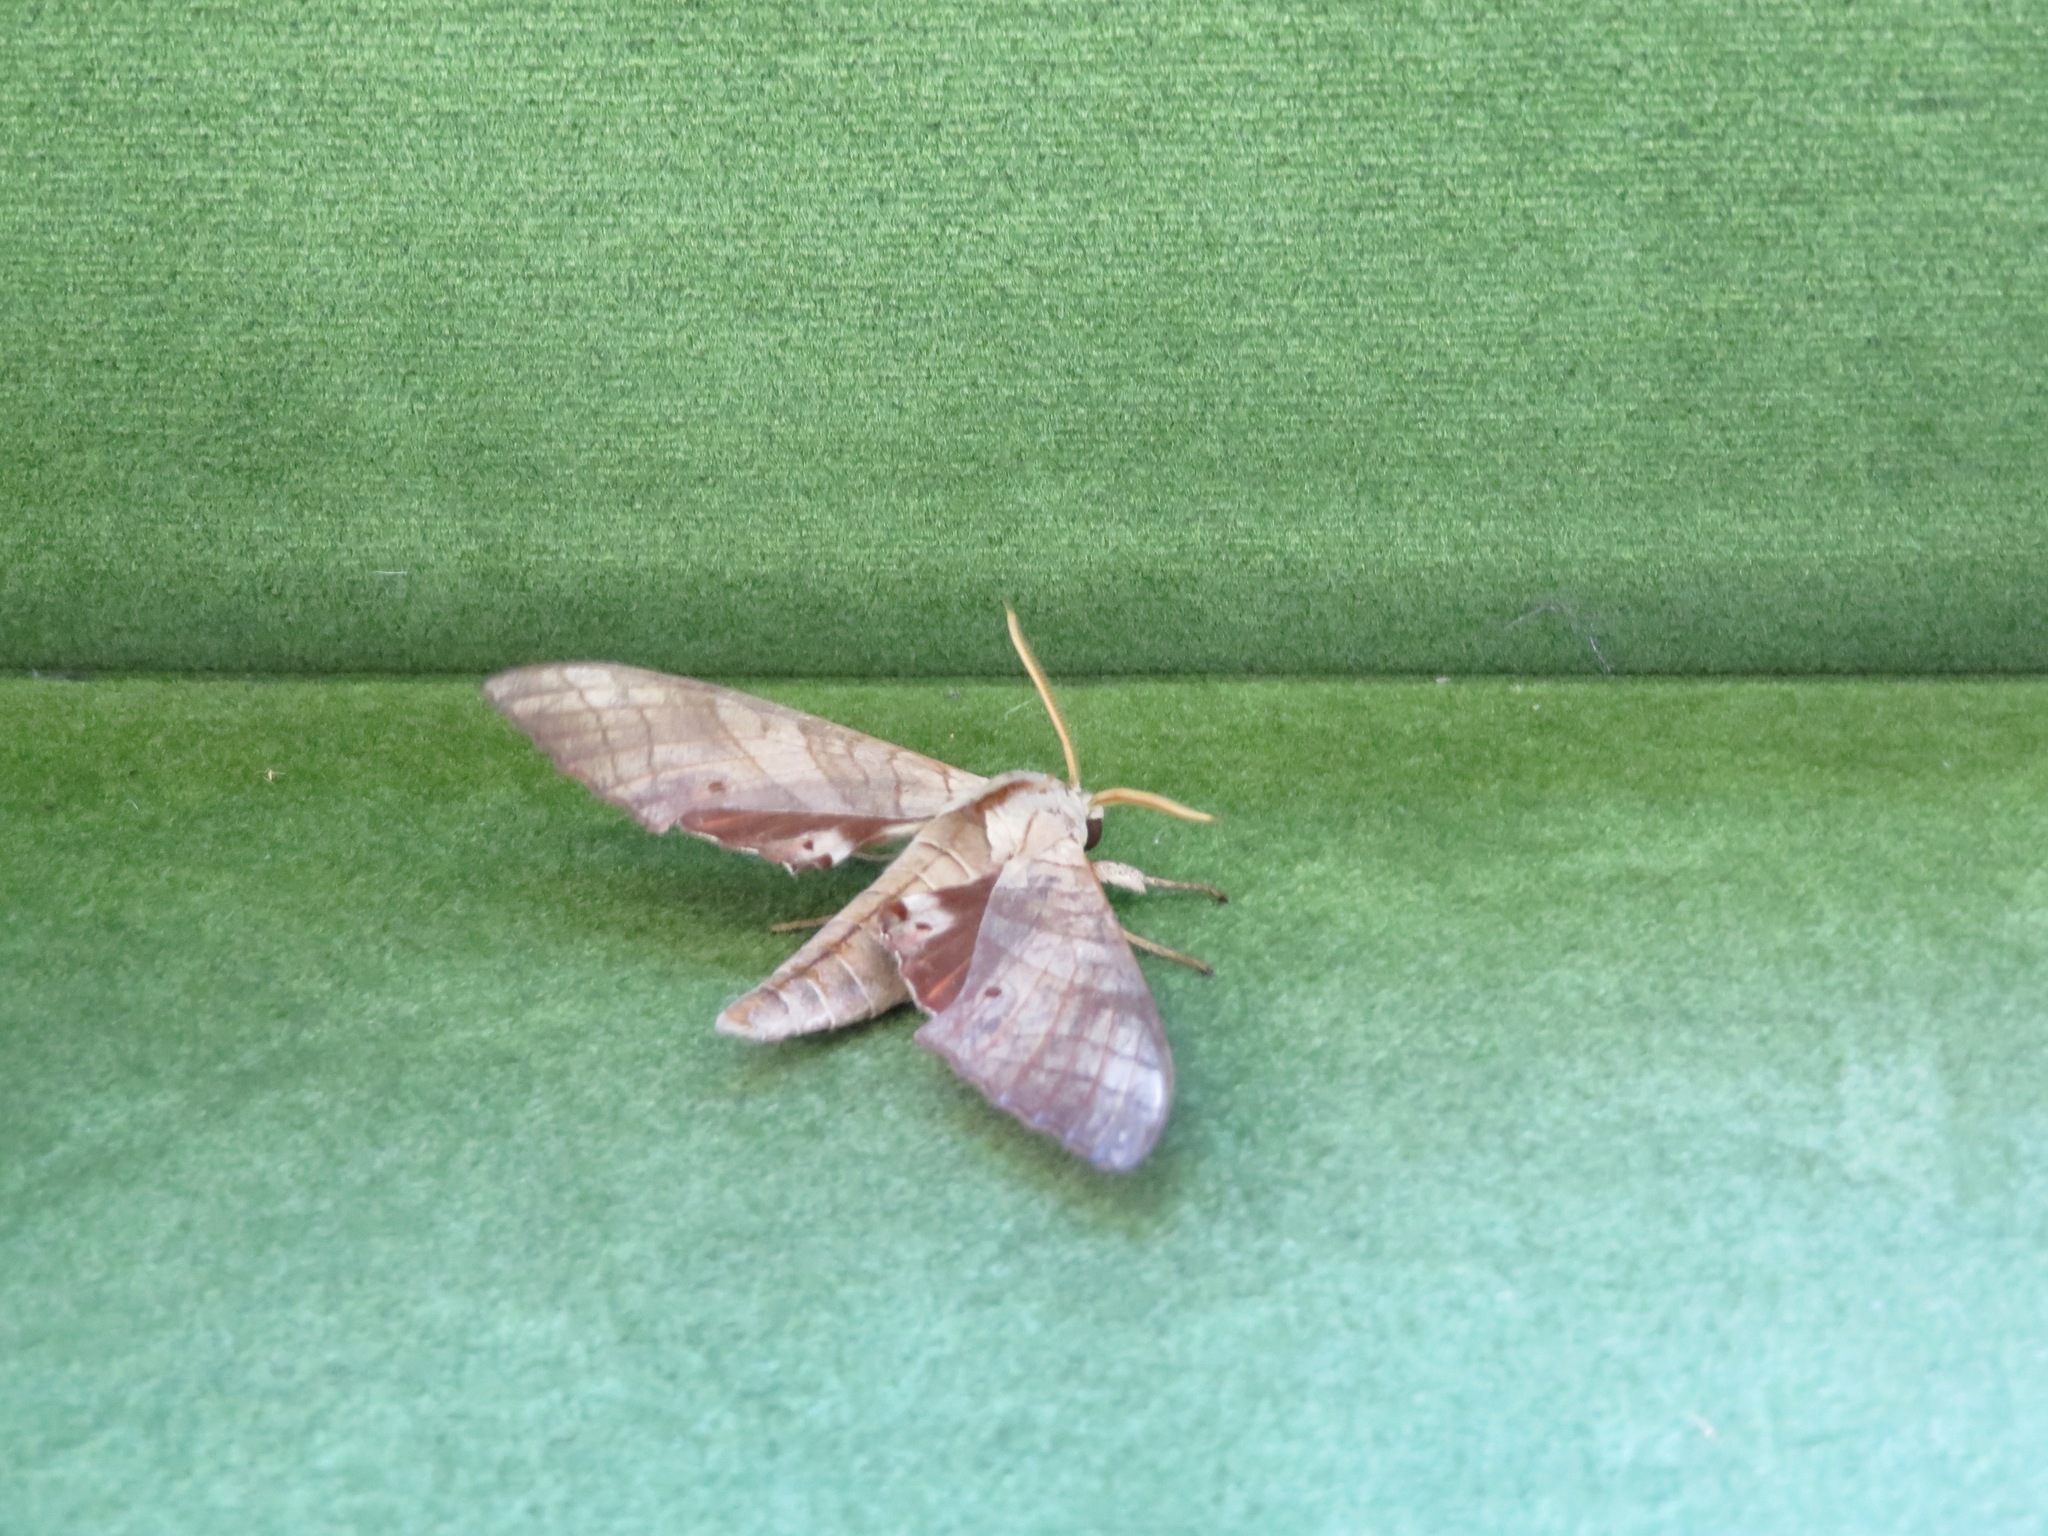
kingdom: Animalia
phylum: Arthropoda
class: Insecta
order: Lepidoptera
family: Sphingidae
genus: Marumba
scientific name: Marumba sperchius
